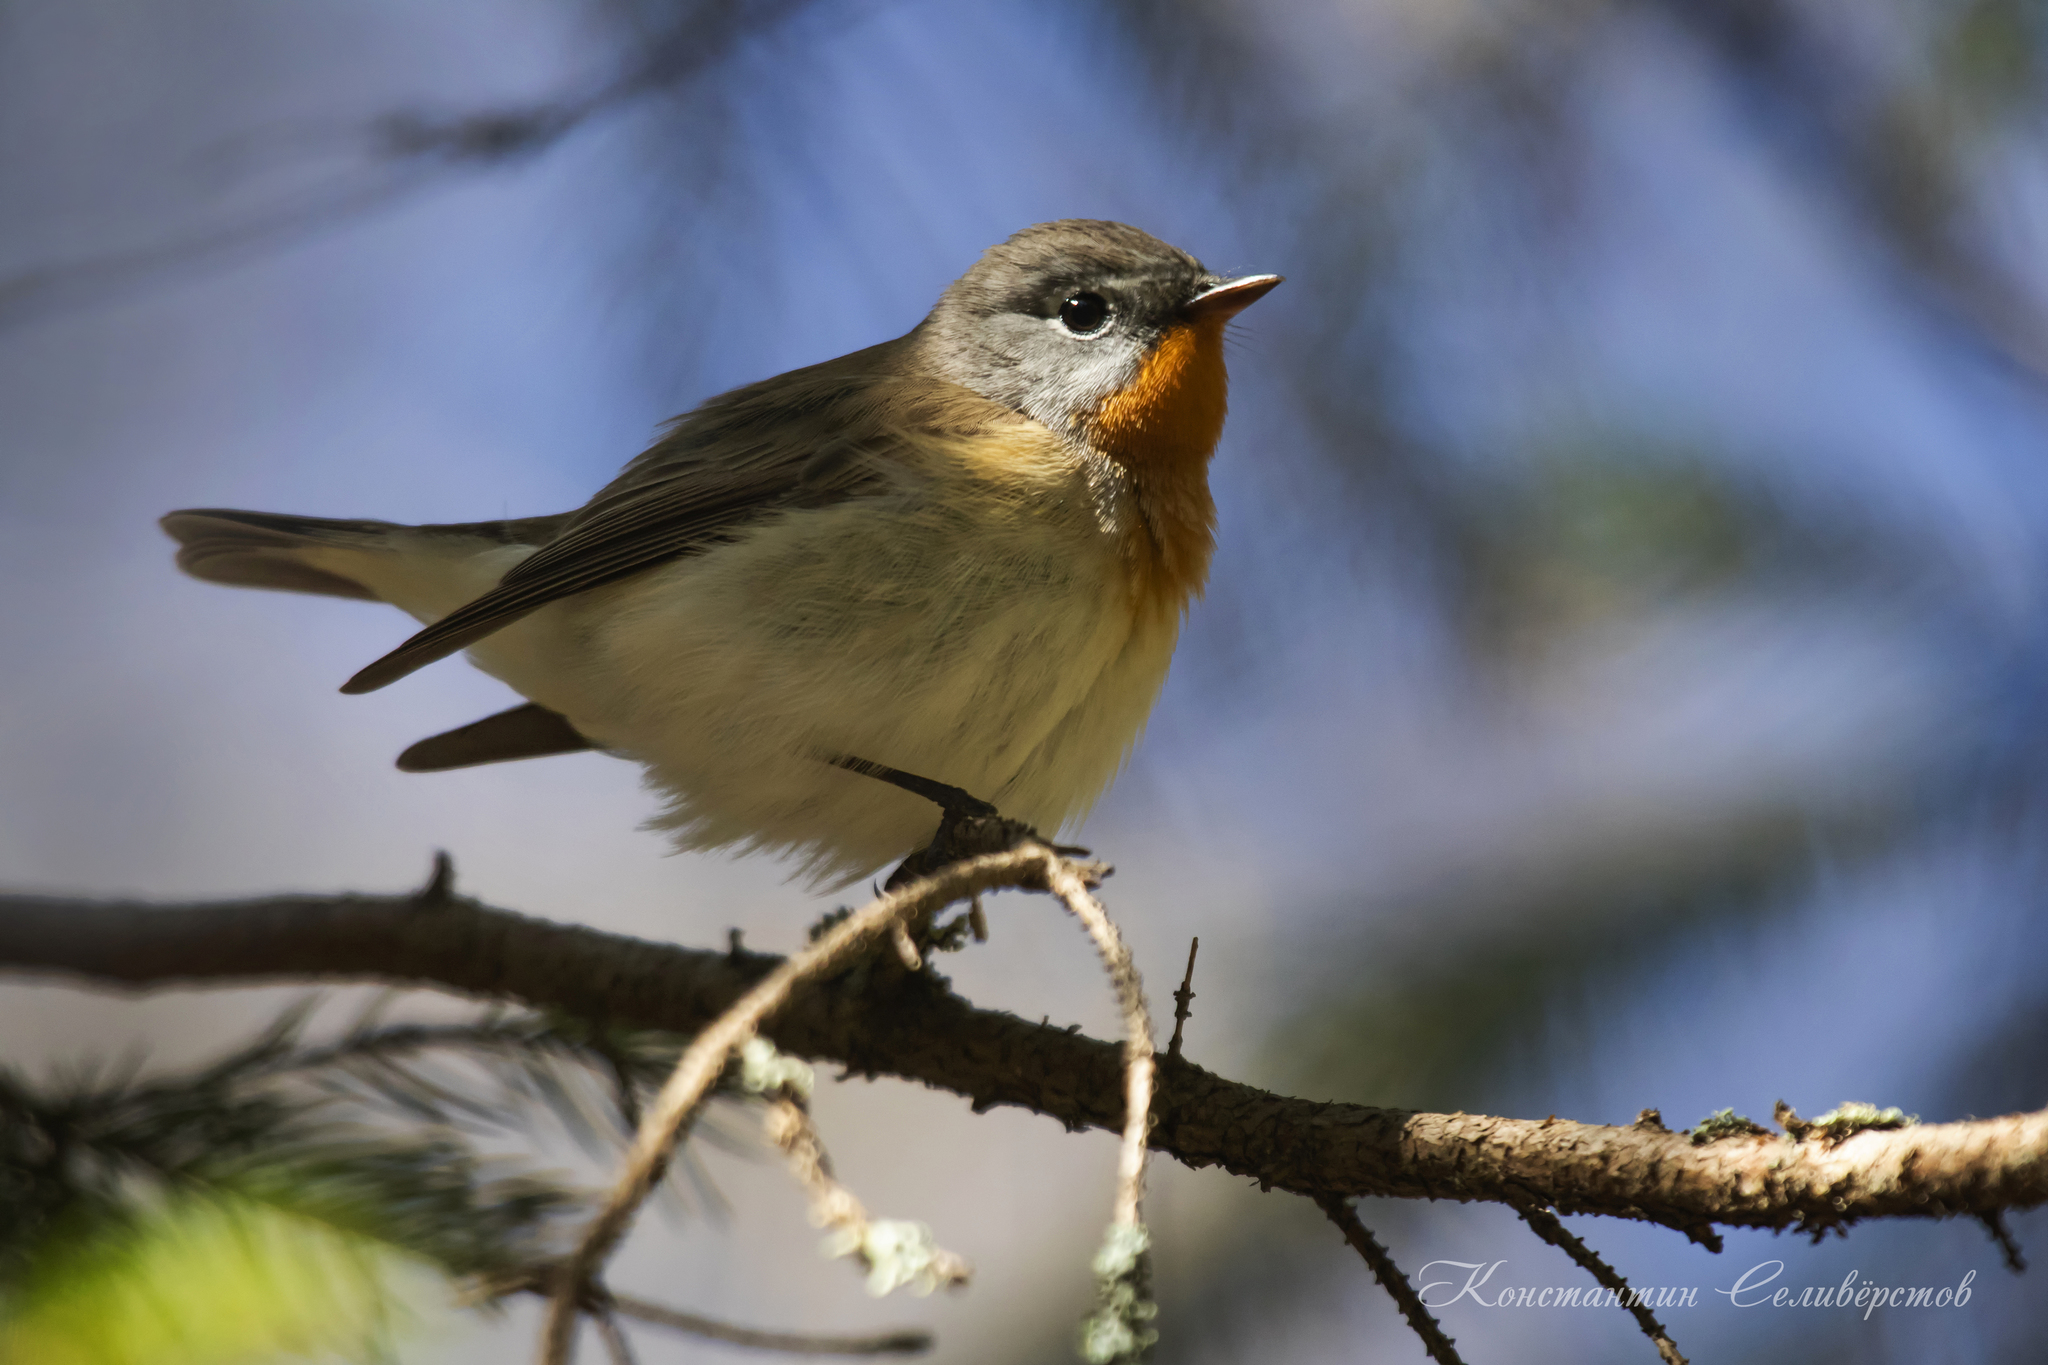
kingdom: Animalia
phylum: Chordata
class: Aves
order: Passeriformes
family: Muscicapidae
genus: Ficedula
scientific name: Ficedula parva
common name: Red-breasted flycatcher
